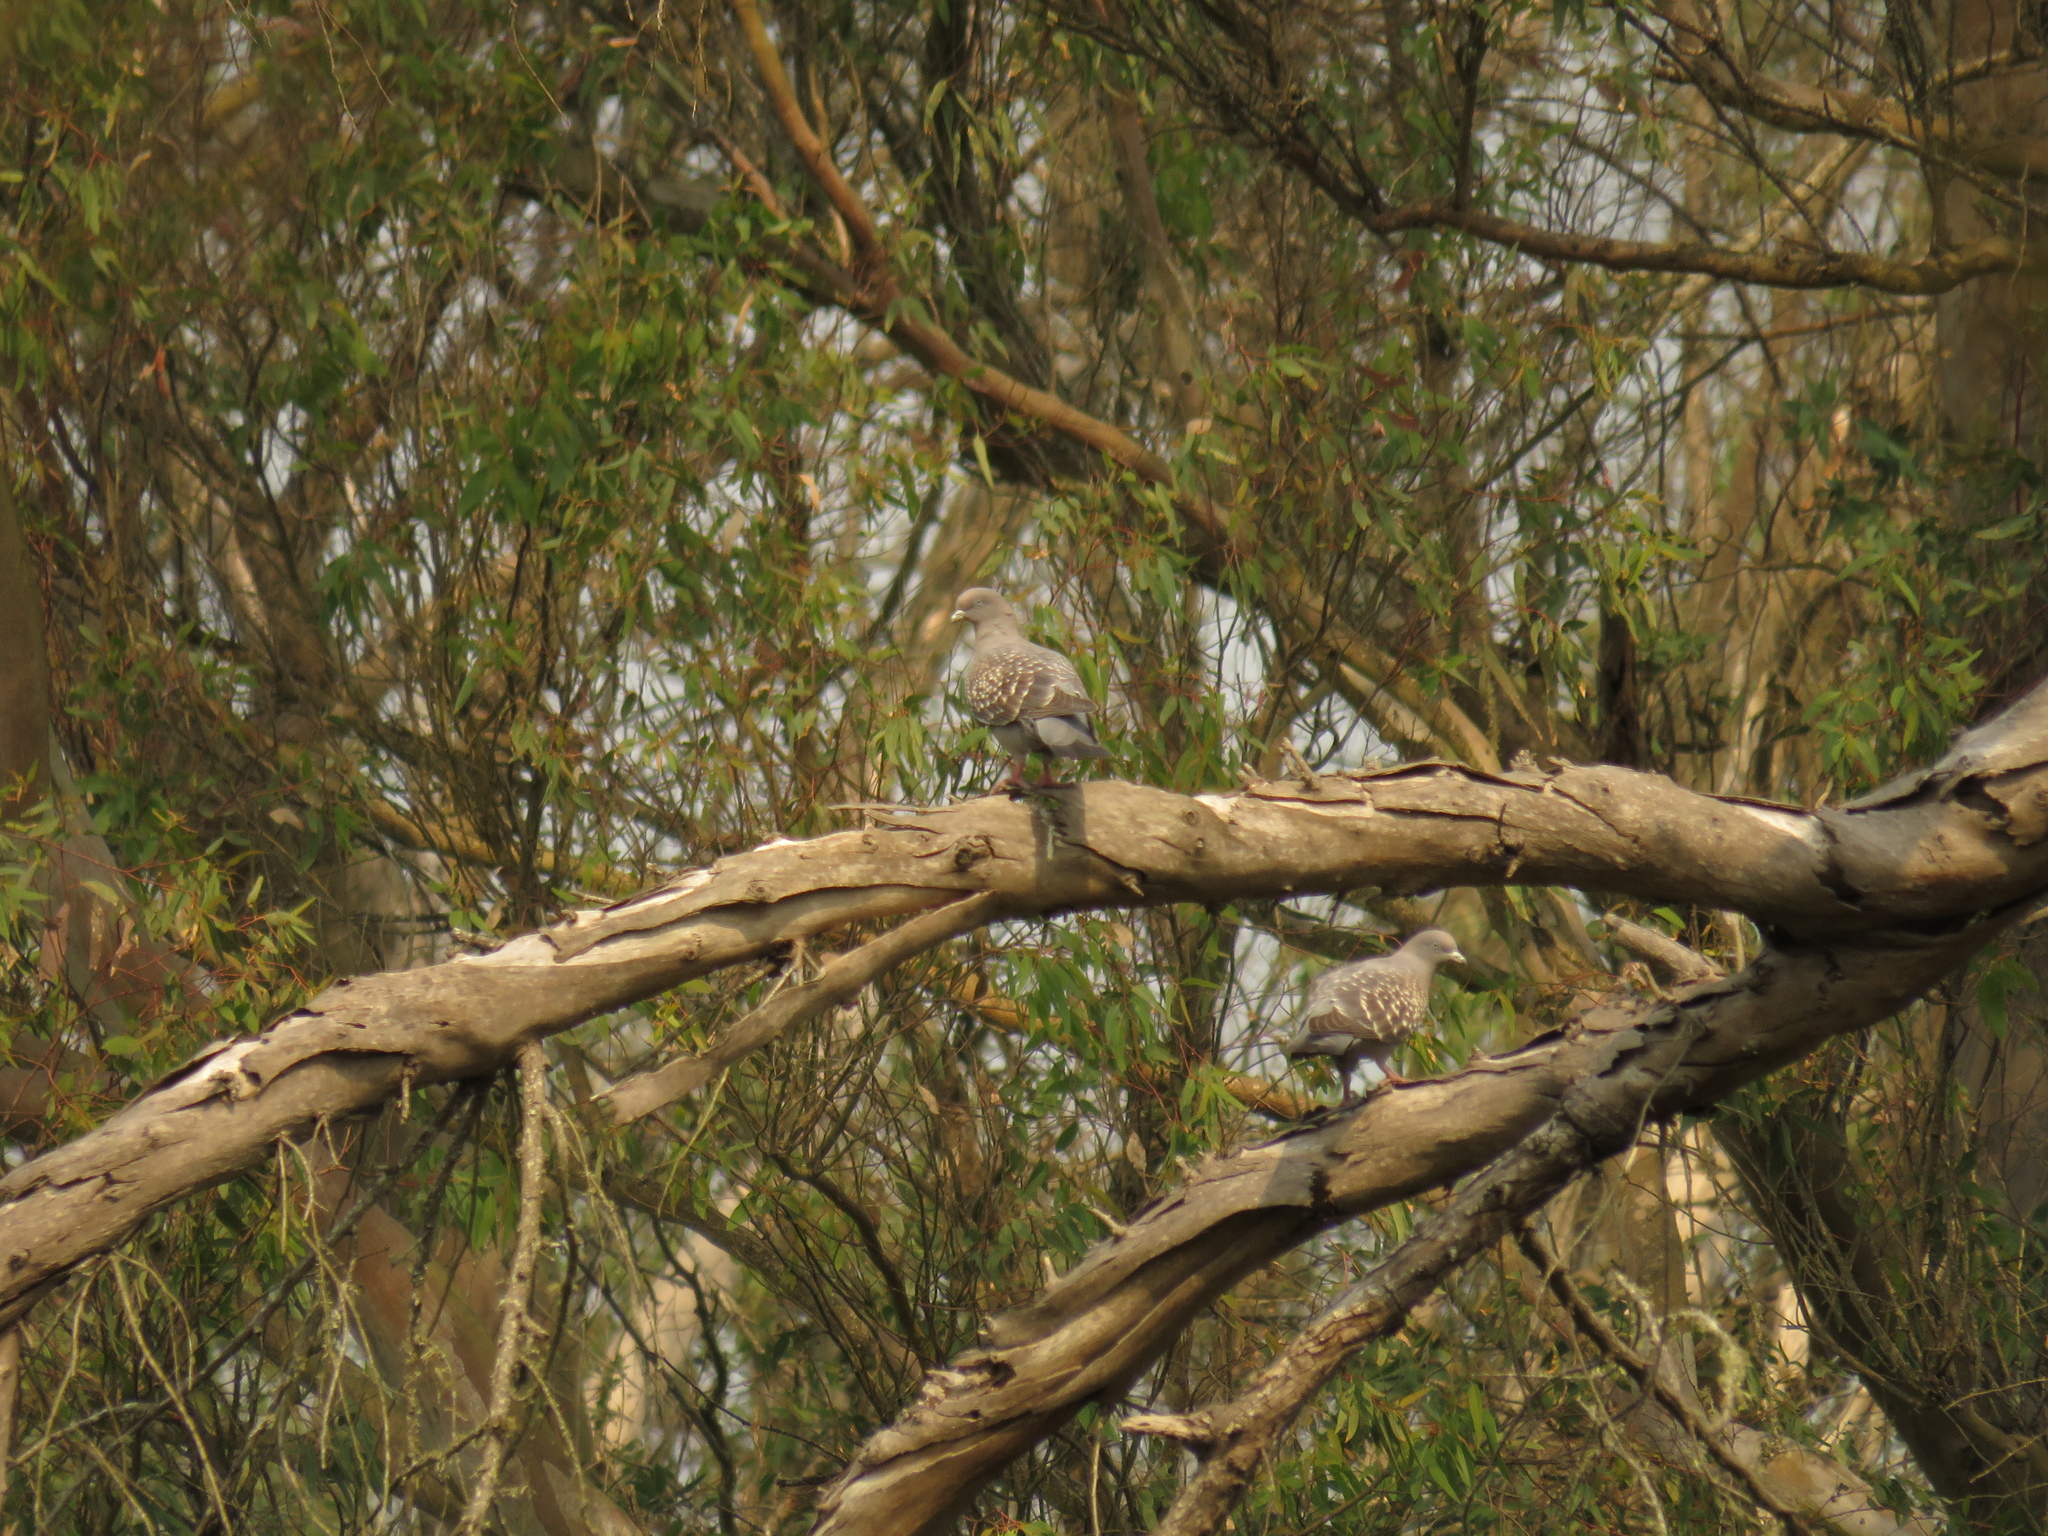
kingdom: Animalia
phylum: Chordata
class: Aves
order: Columbiformes
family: Columbidae
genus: Patagioenas
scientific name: Patagioenas maculosa
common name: Spot-winged pigeon
